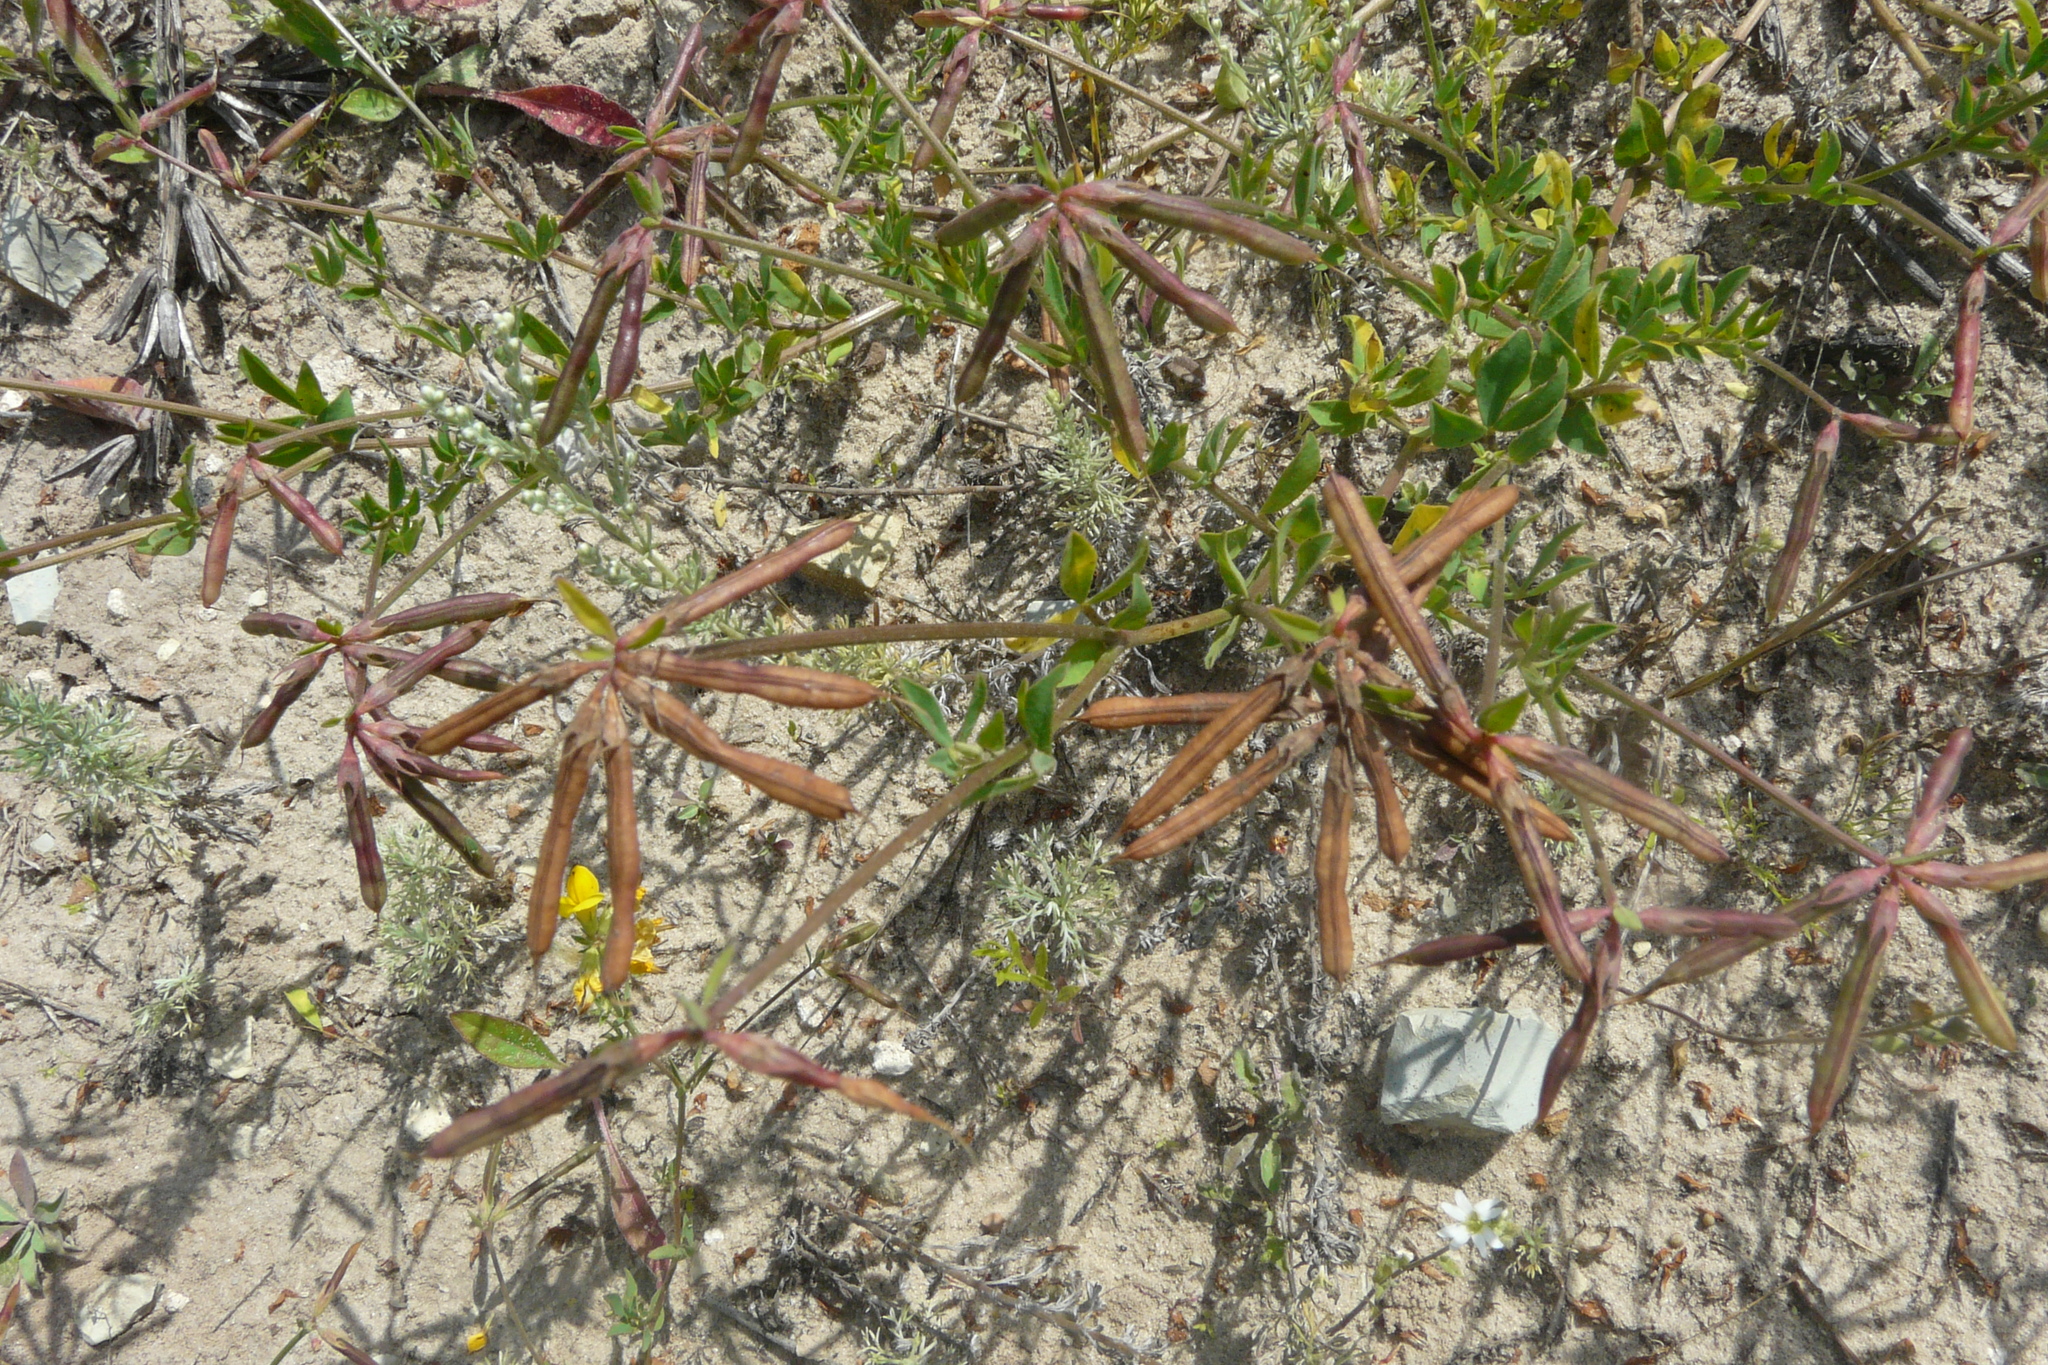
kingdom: Plantae
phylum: Tracheophyta
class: Magnoliopsida
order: Fabales
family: Fabaceae
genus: Lotus
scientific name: Lotus corniculatus
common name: Common bird's-foot-trefoil
